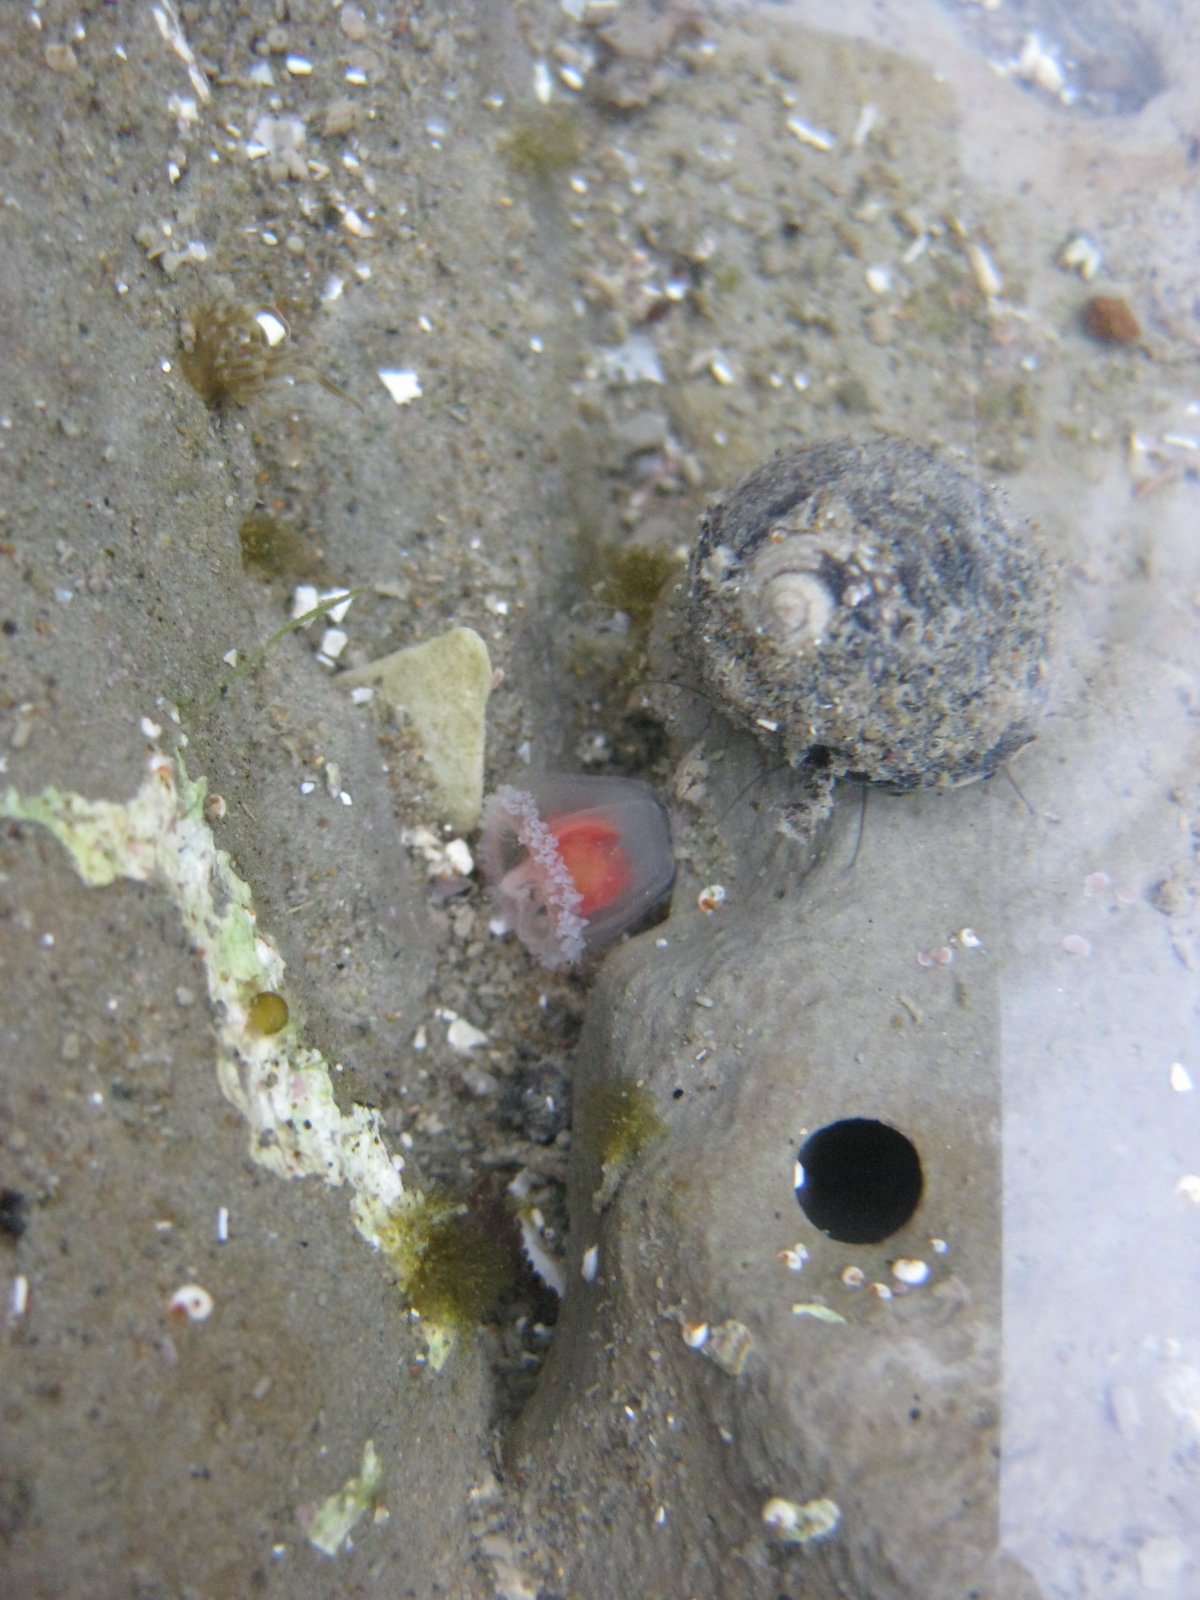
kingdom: Animalia
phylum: Cnidaria
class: Hydrozoa
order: Anthoathecata
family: Oceaniidae
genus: Turritopsis
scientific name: Turritopsis rubra
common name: Crimson jelly
